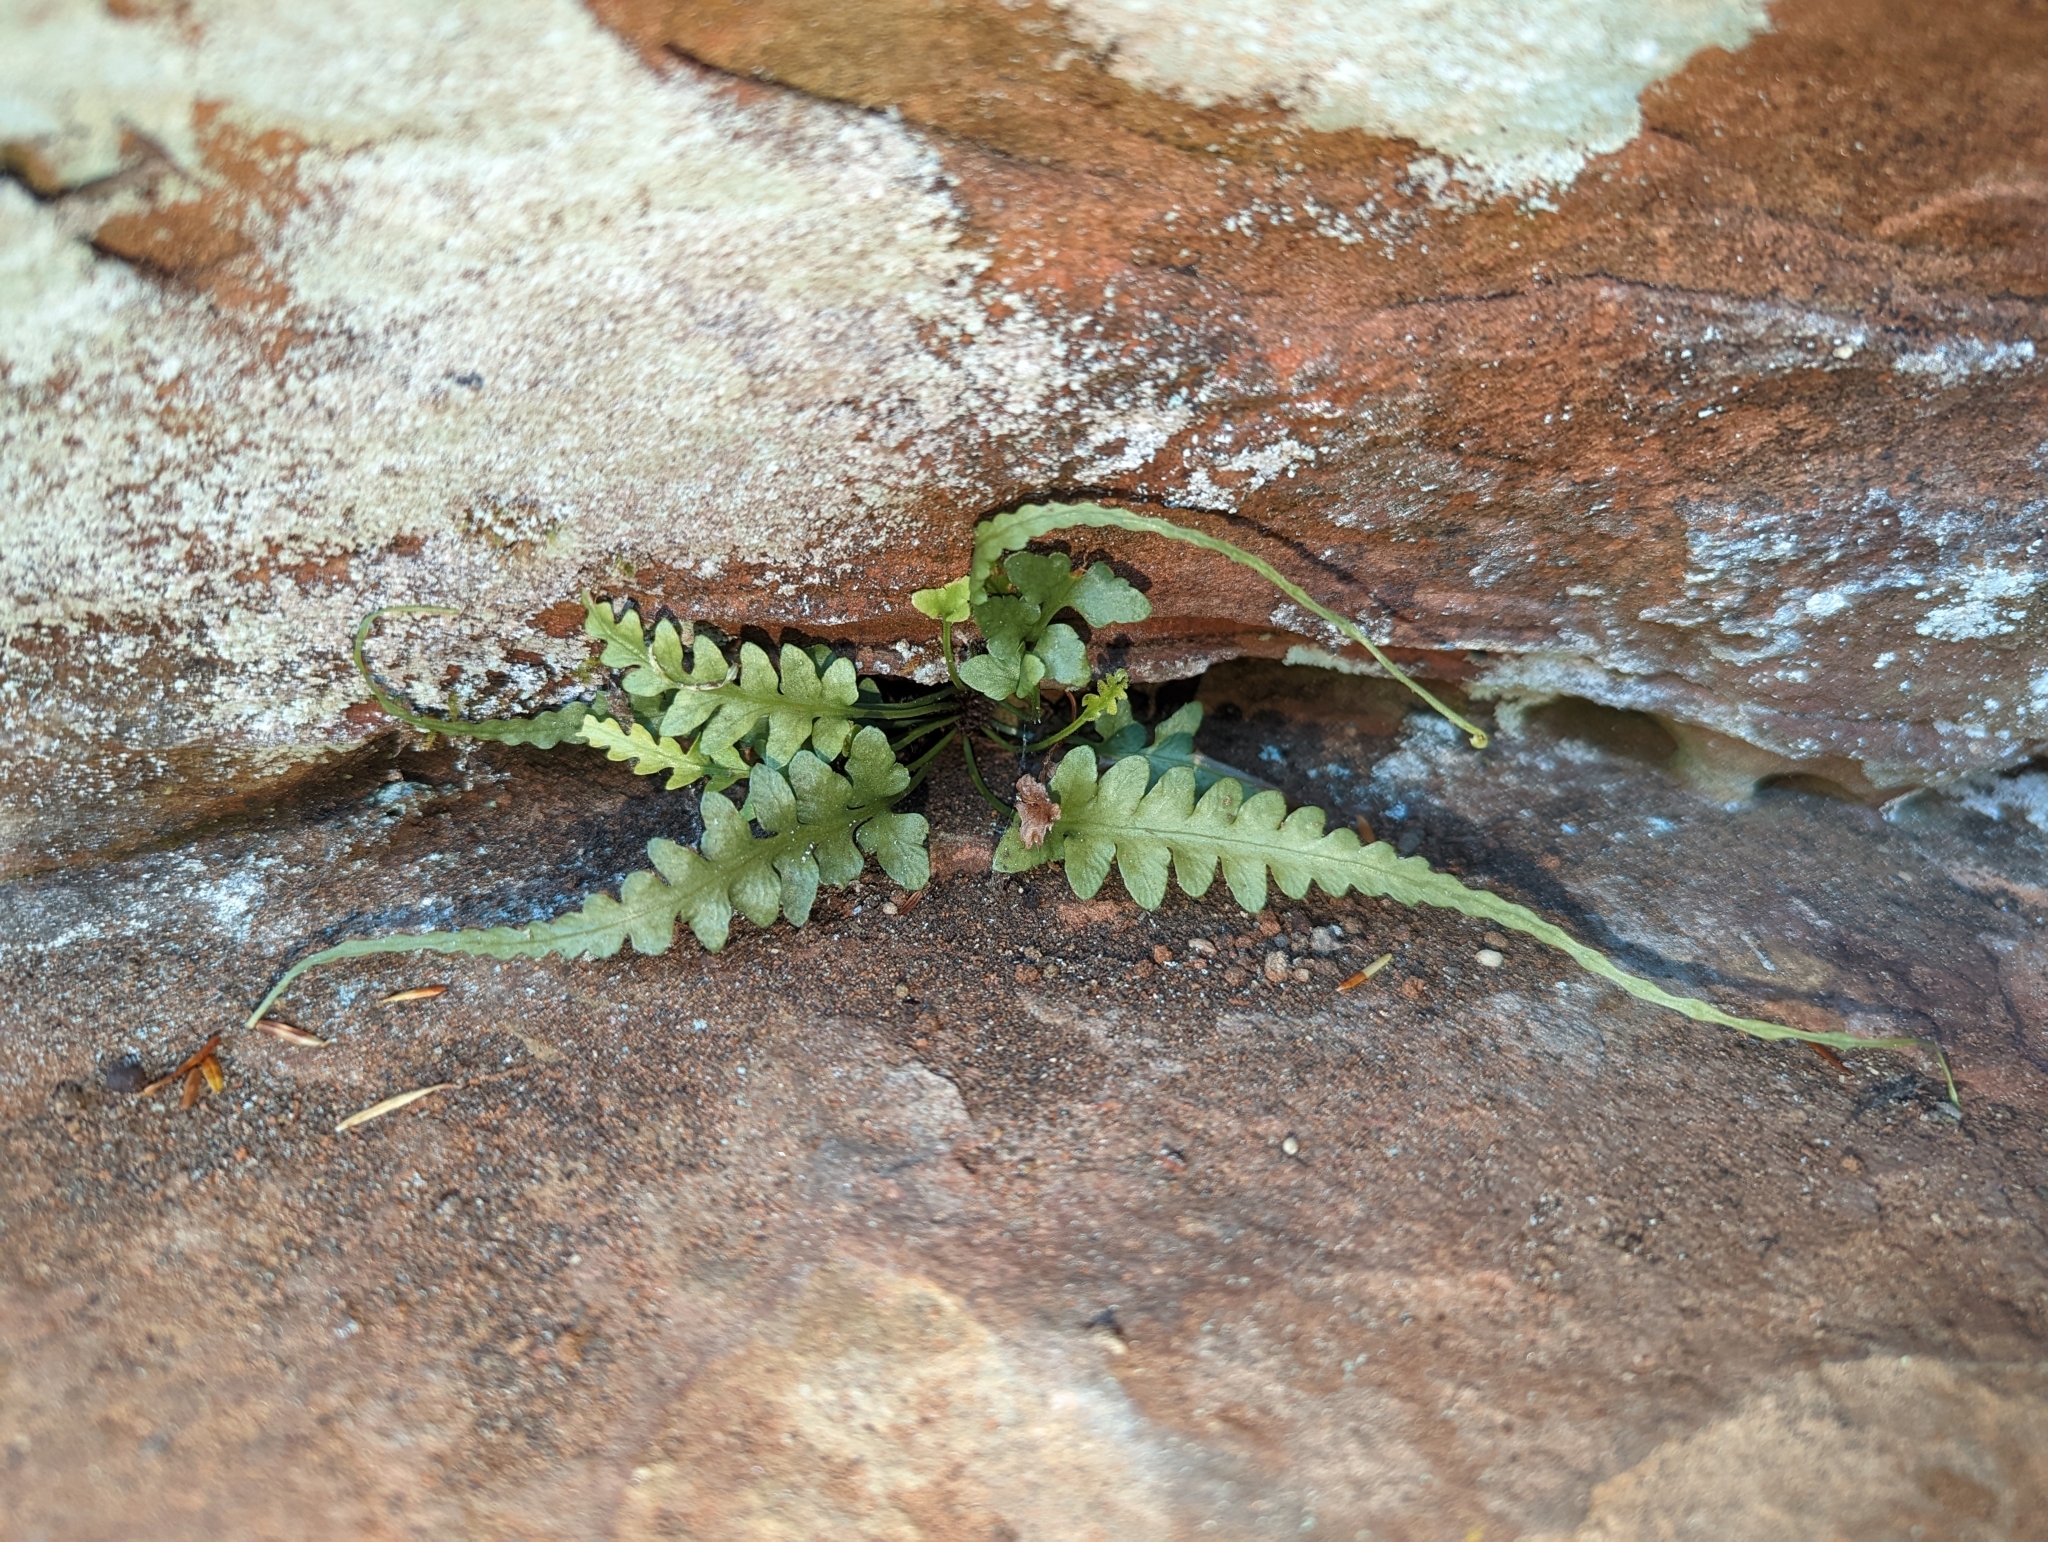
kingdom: Plantae
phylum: Tracheophyta
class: Polypodiopsida
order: Polypodiales
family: Aspleniaceae
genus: Asplenium
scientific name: Asplenium pinnatifidum
